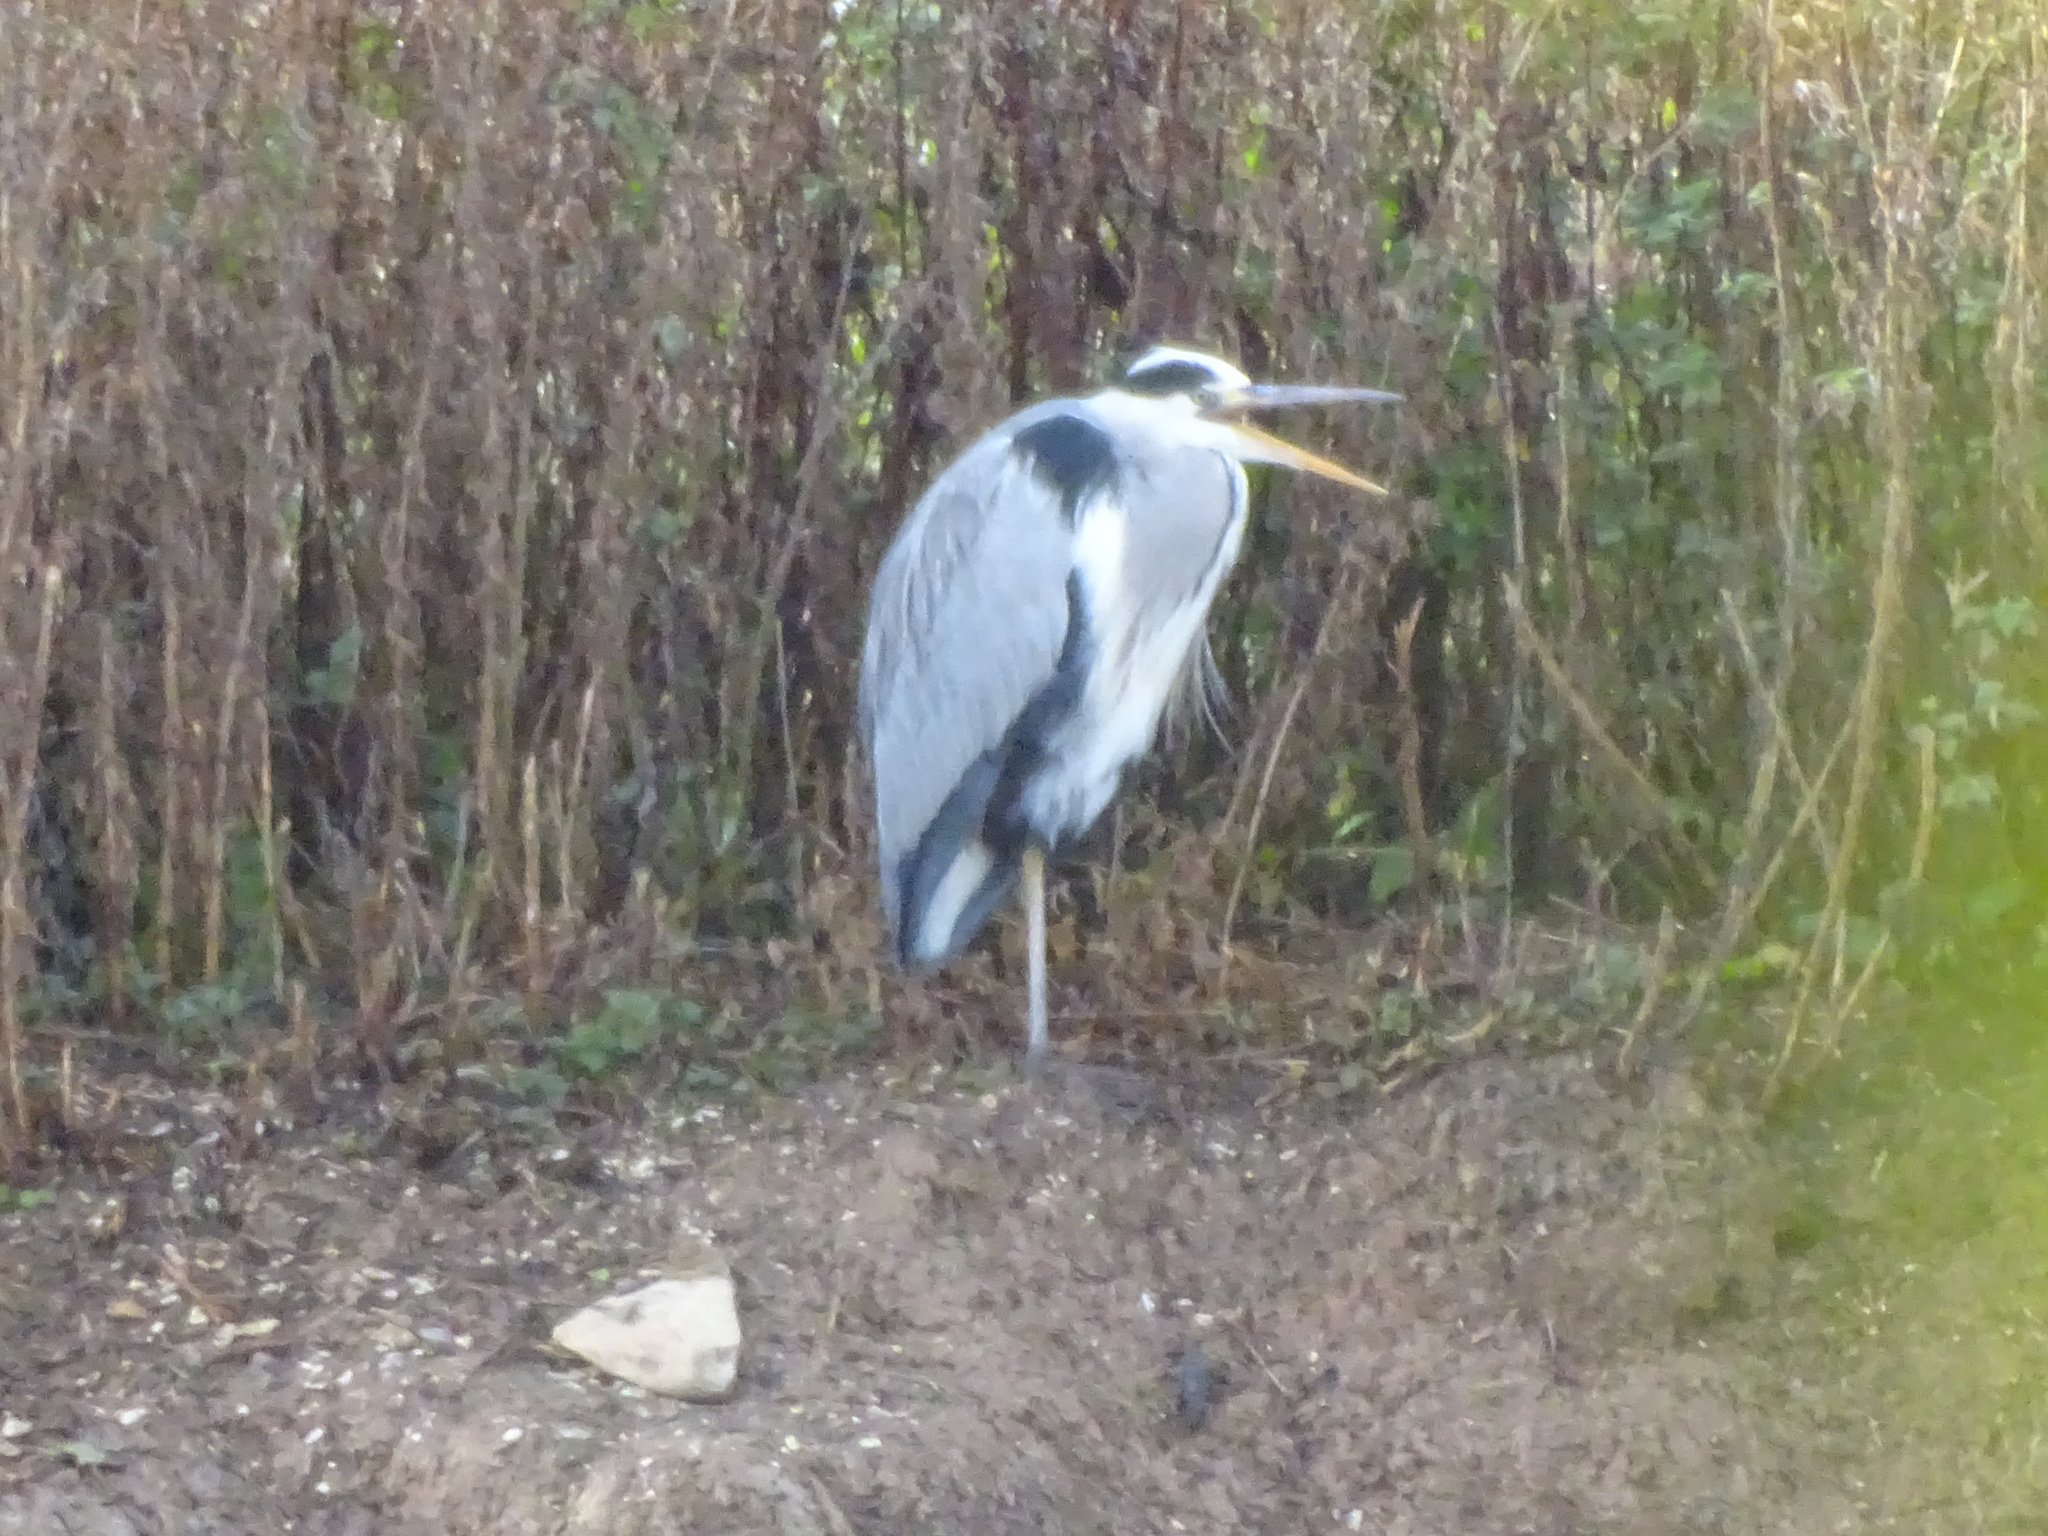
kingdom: Animalia
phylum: Chordata
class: Aves
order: Pelecaniformes
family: Ardeidae
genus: Ardea
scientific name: Ardea cinerea
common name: Grey heron
